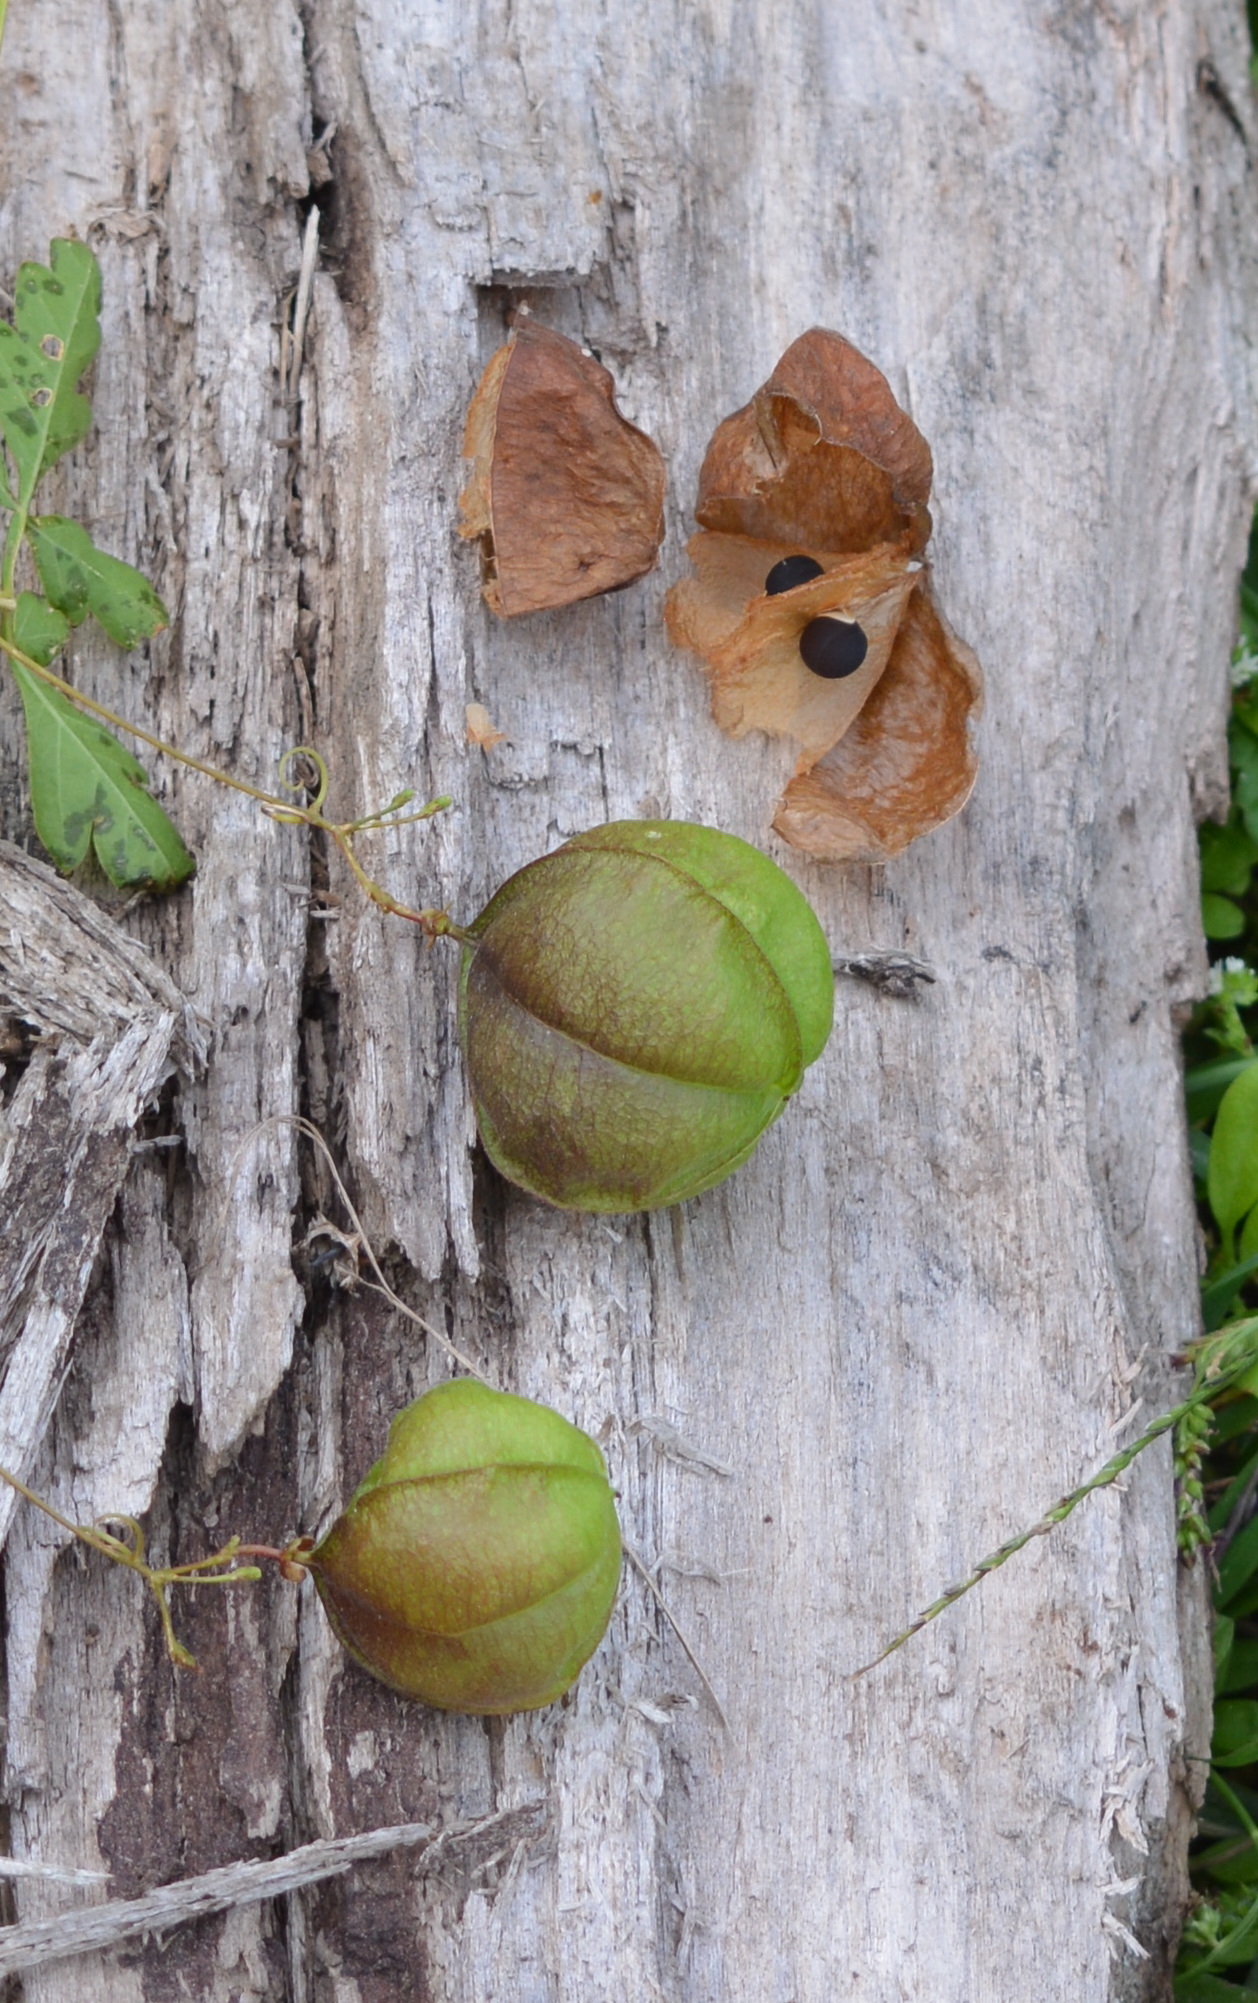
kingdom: Plantae
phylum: Tracheophyta
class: Magnoliopsida
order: Sapindales
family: Sapindaceae
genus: Cardiospermum
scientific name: Cardiospermum halicacabum
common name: Balloon vine
